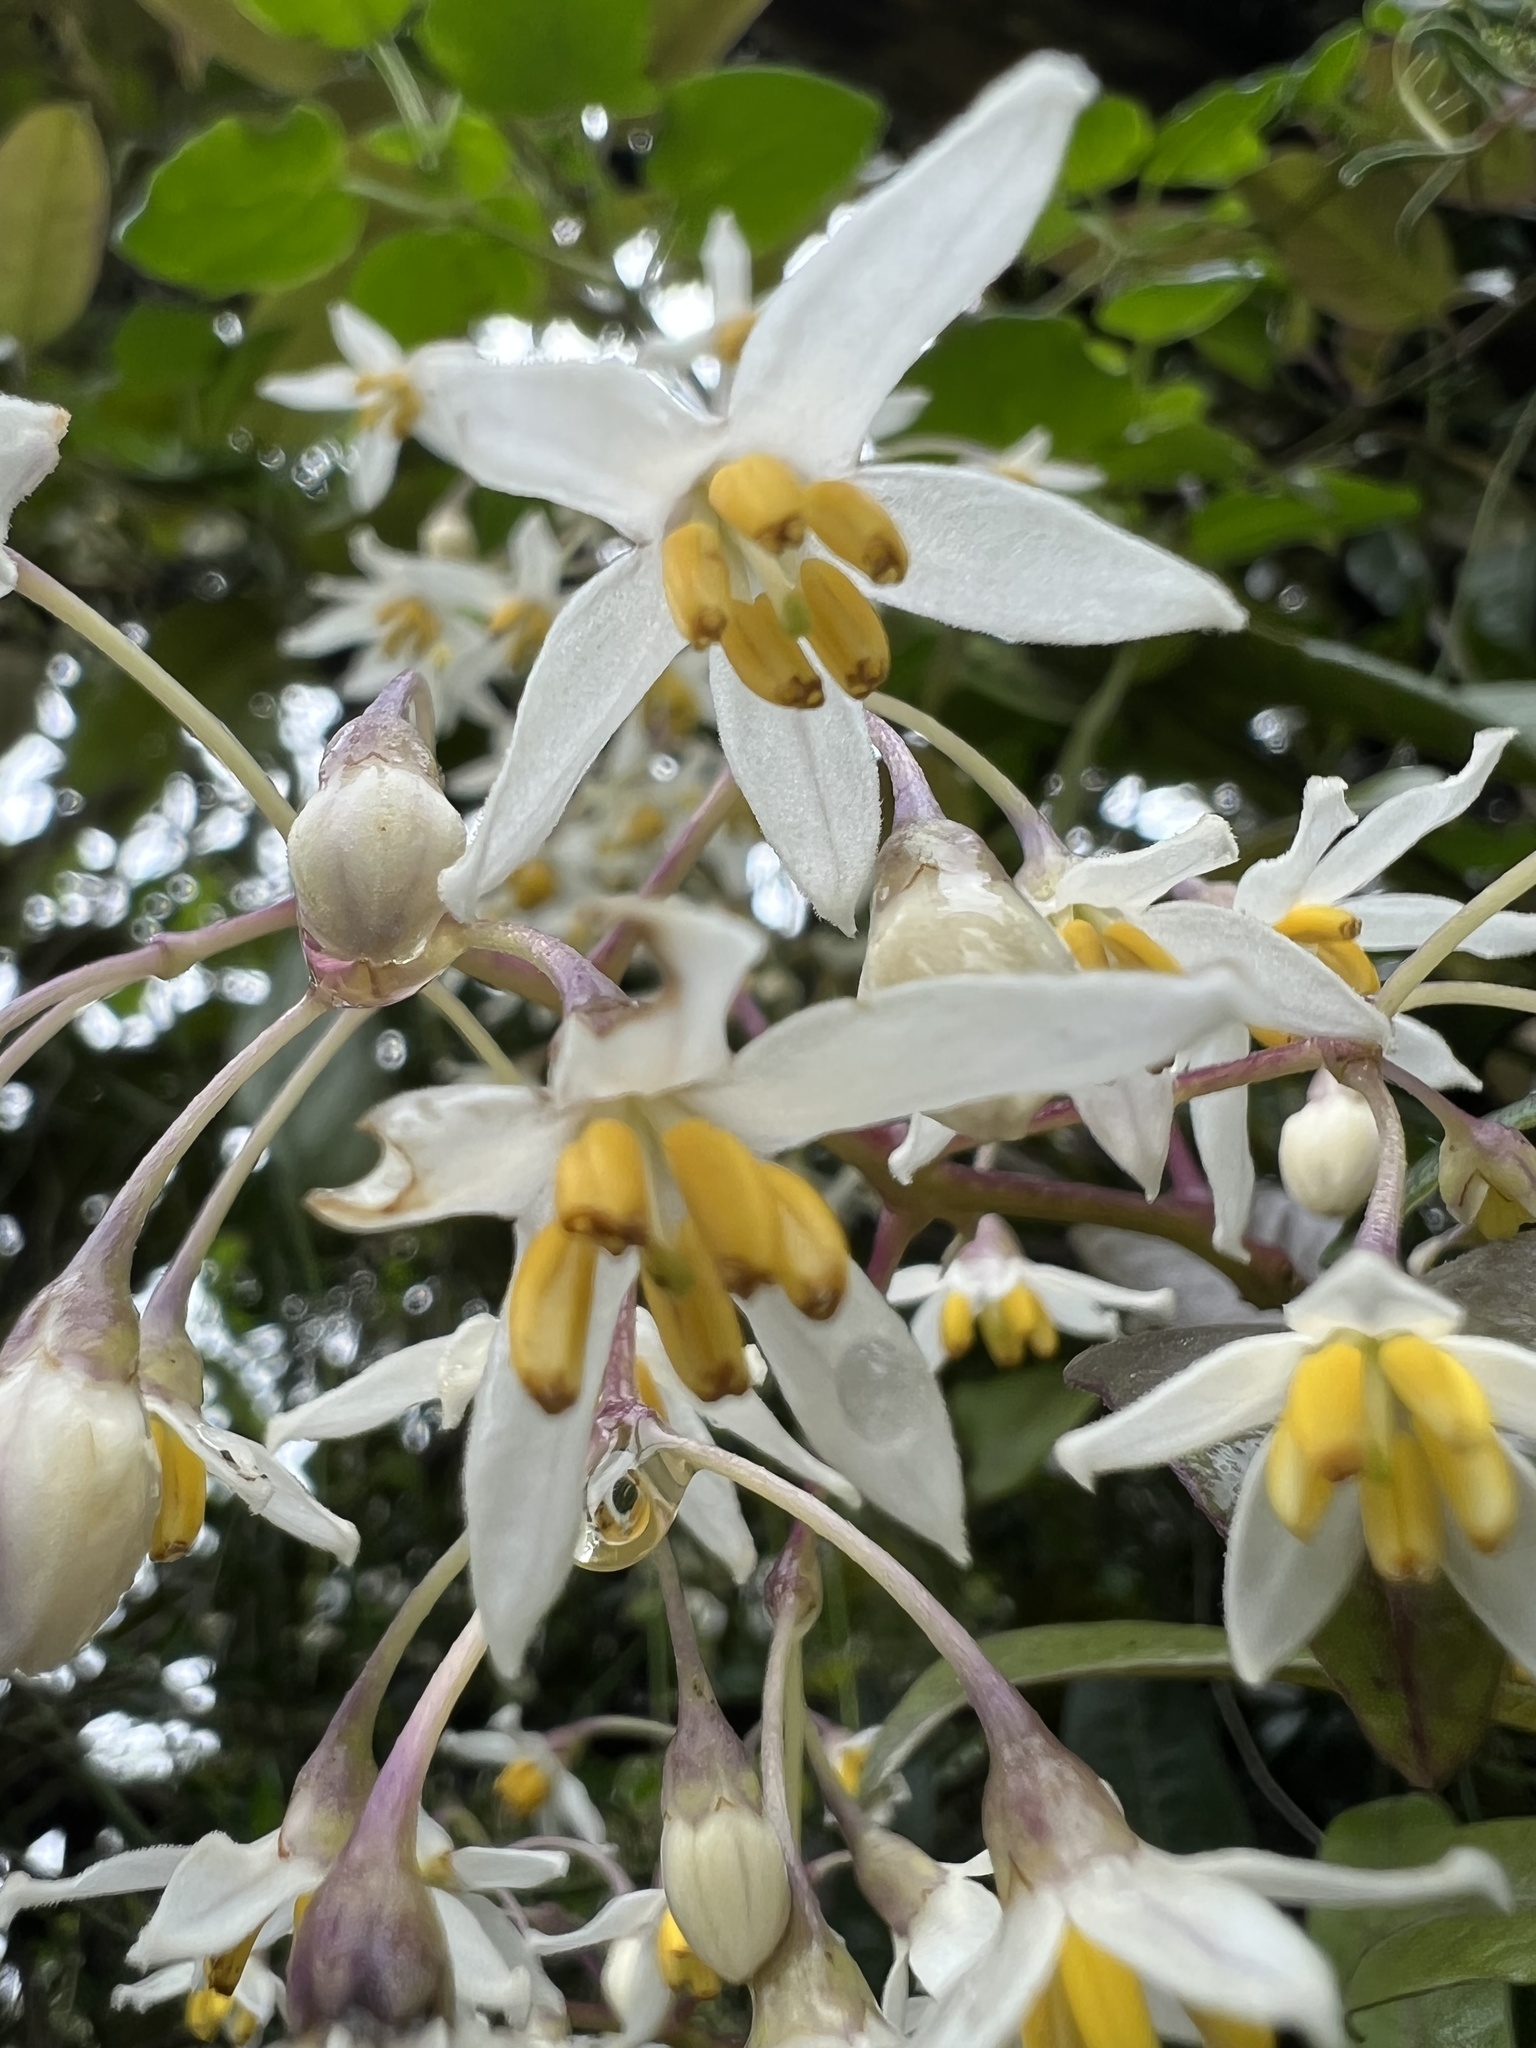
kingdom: Plantae
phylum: Tracheophyta
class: Magnoliopsida
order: Solanales
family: Solanaceae
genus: Solanum
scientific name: Solanum luculentum
